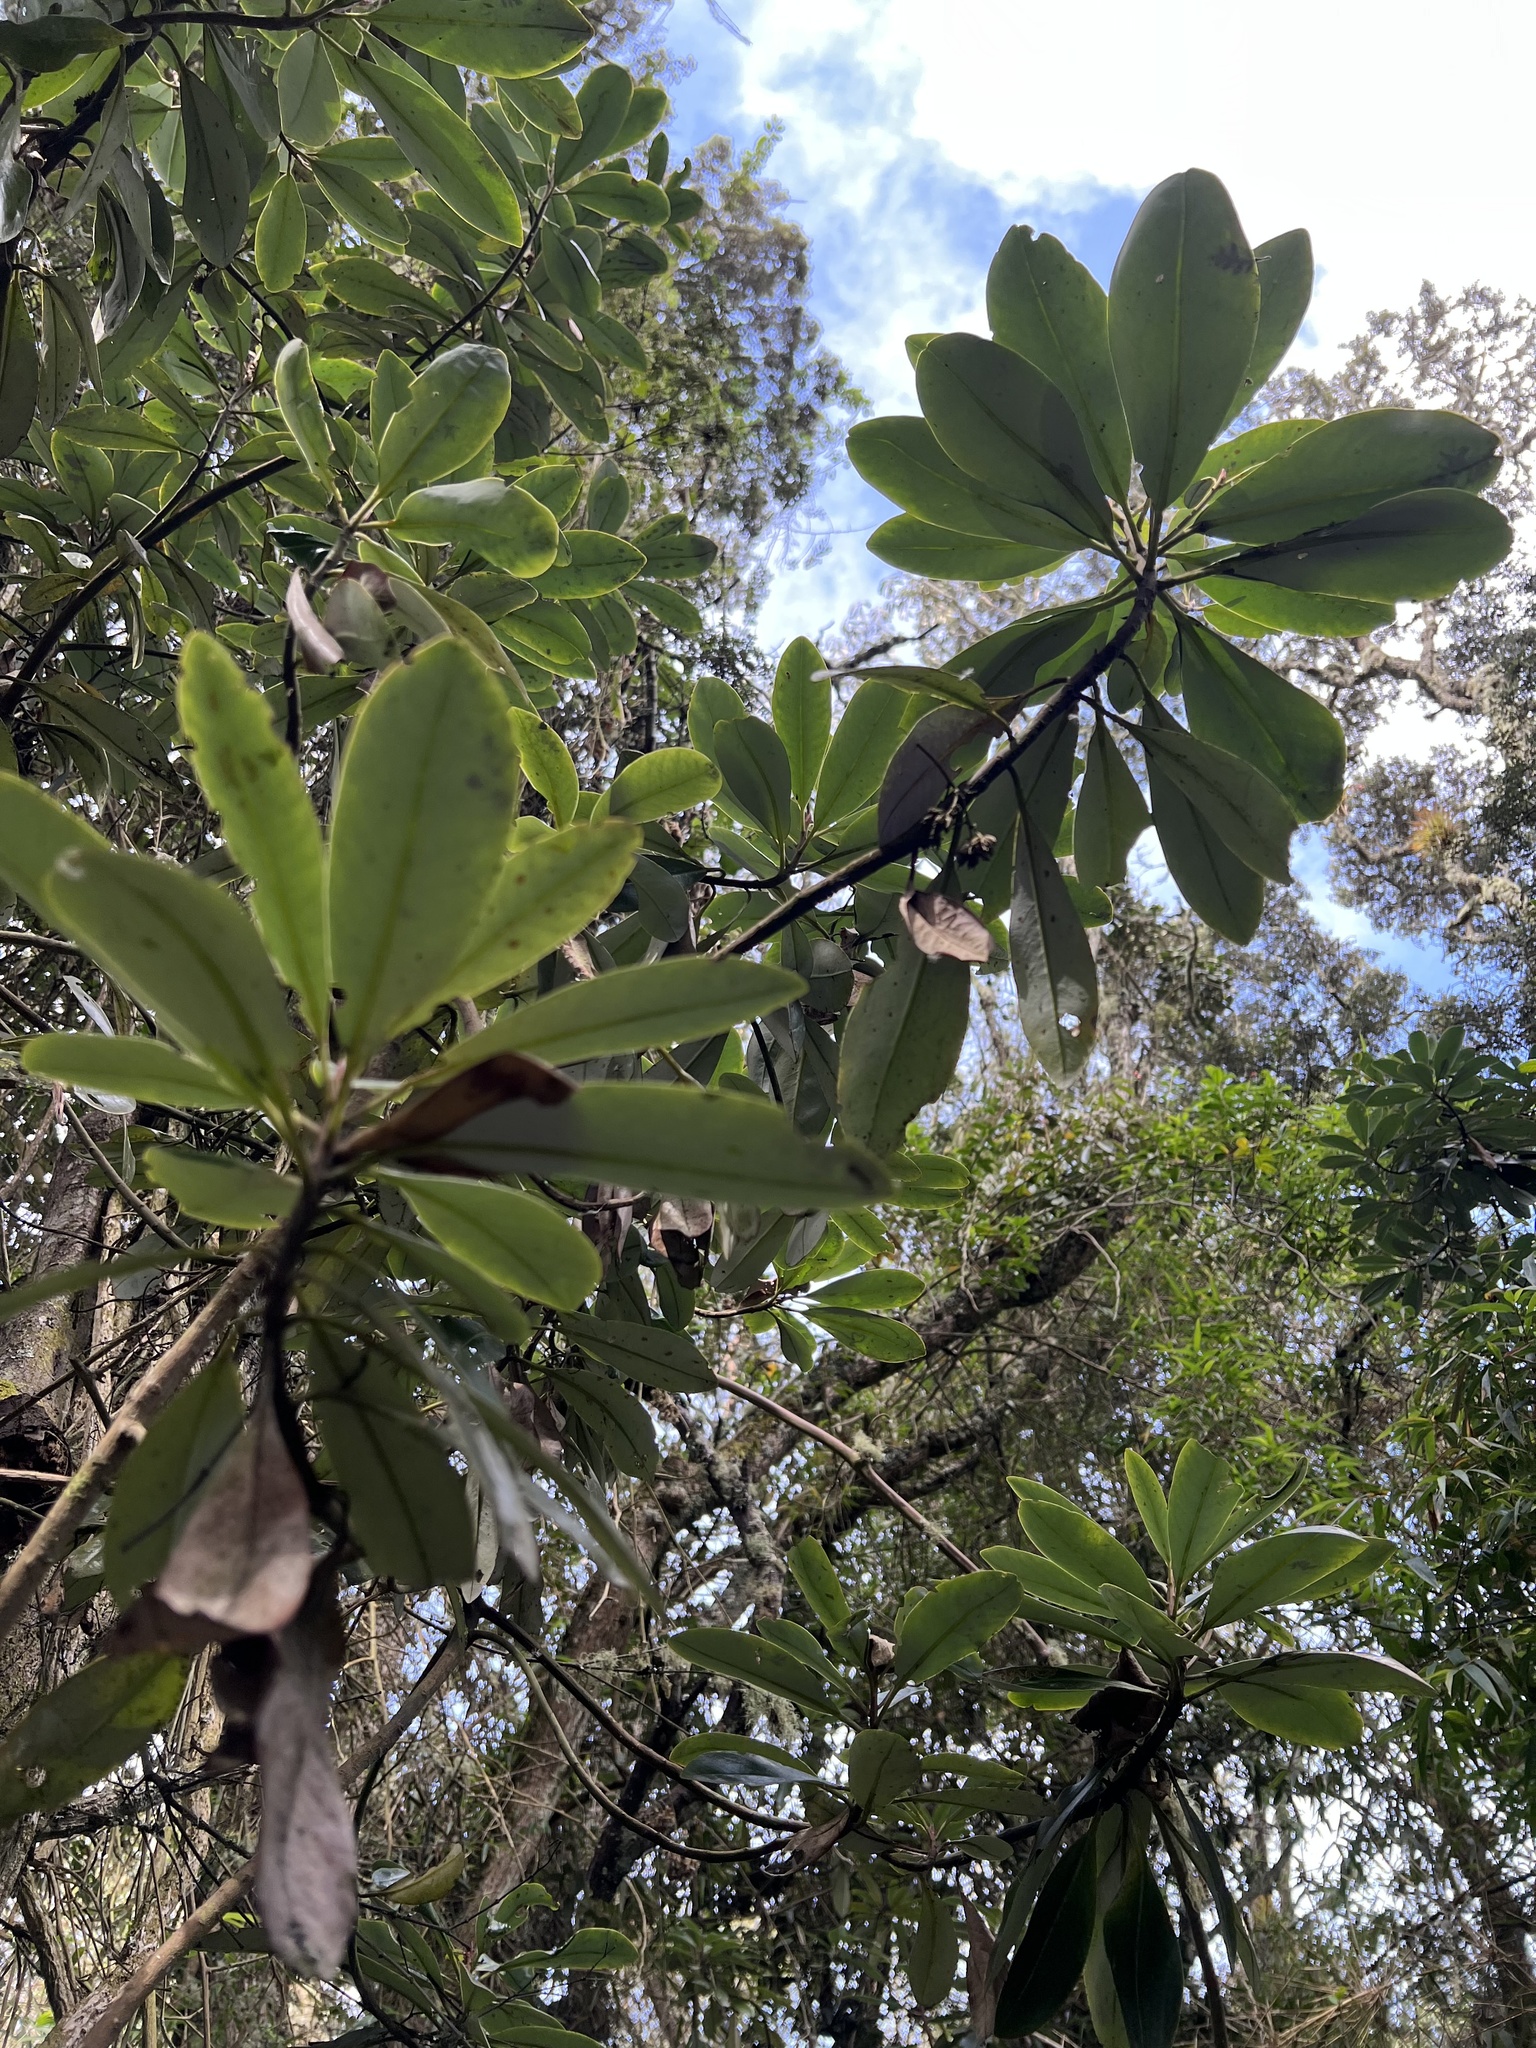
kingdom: Plantae
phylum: Tracheophyta
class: Magnoliopsida
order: Canellales
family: Winteraceae
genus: Drimys
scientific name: Drimys granadensis
